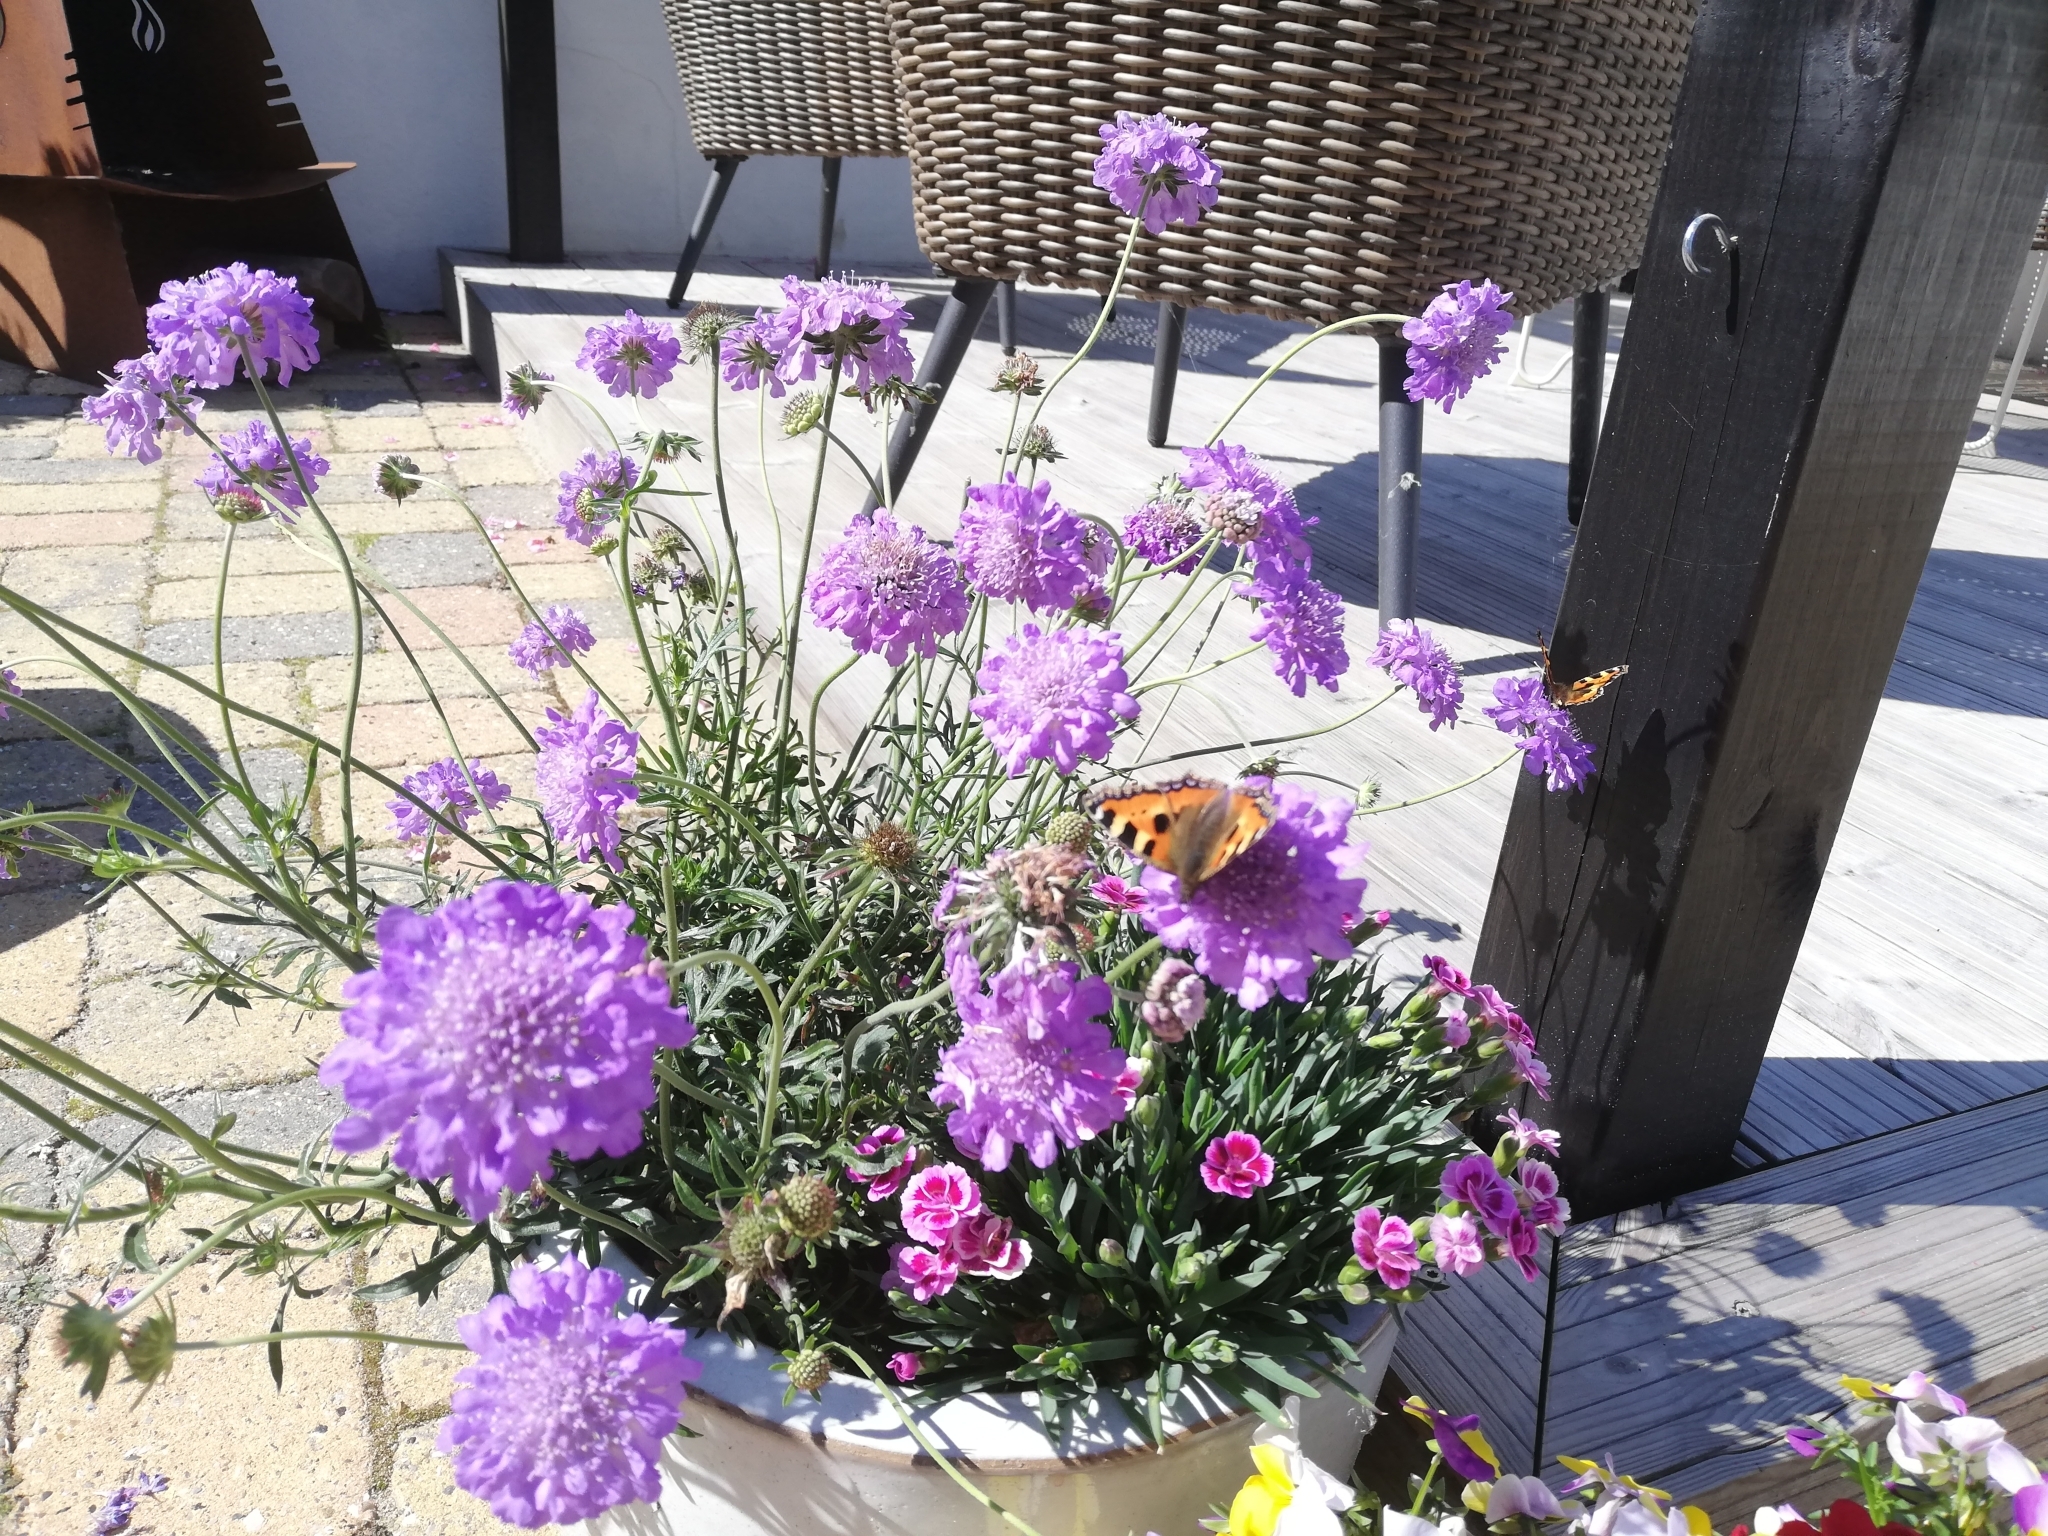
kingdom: Animalia
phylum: Arthropoda
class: Insecta
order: Lepidoptera
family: Nymphalidae
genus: Aglais
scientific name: Aglais urticae
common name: Small tortoiseshell
